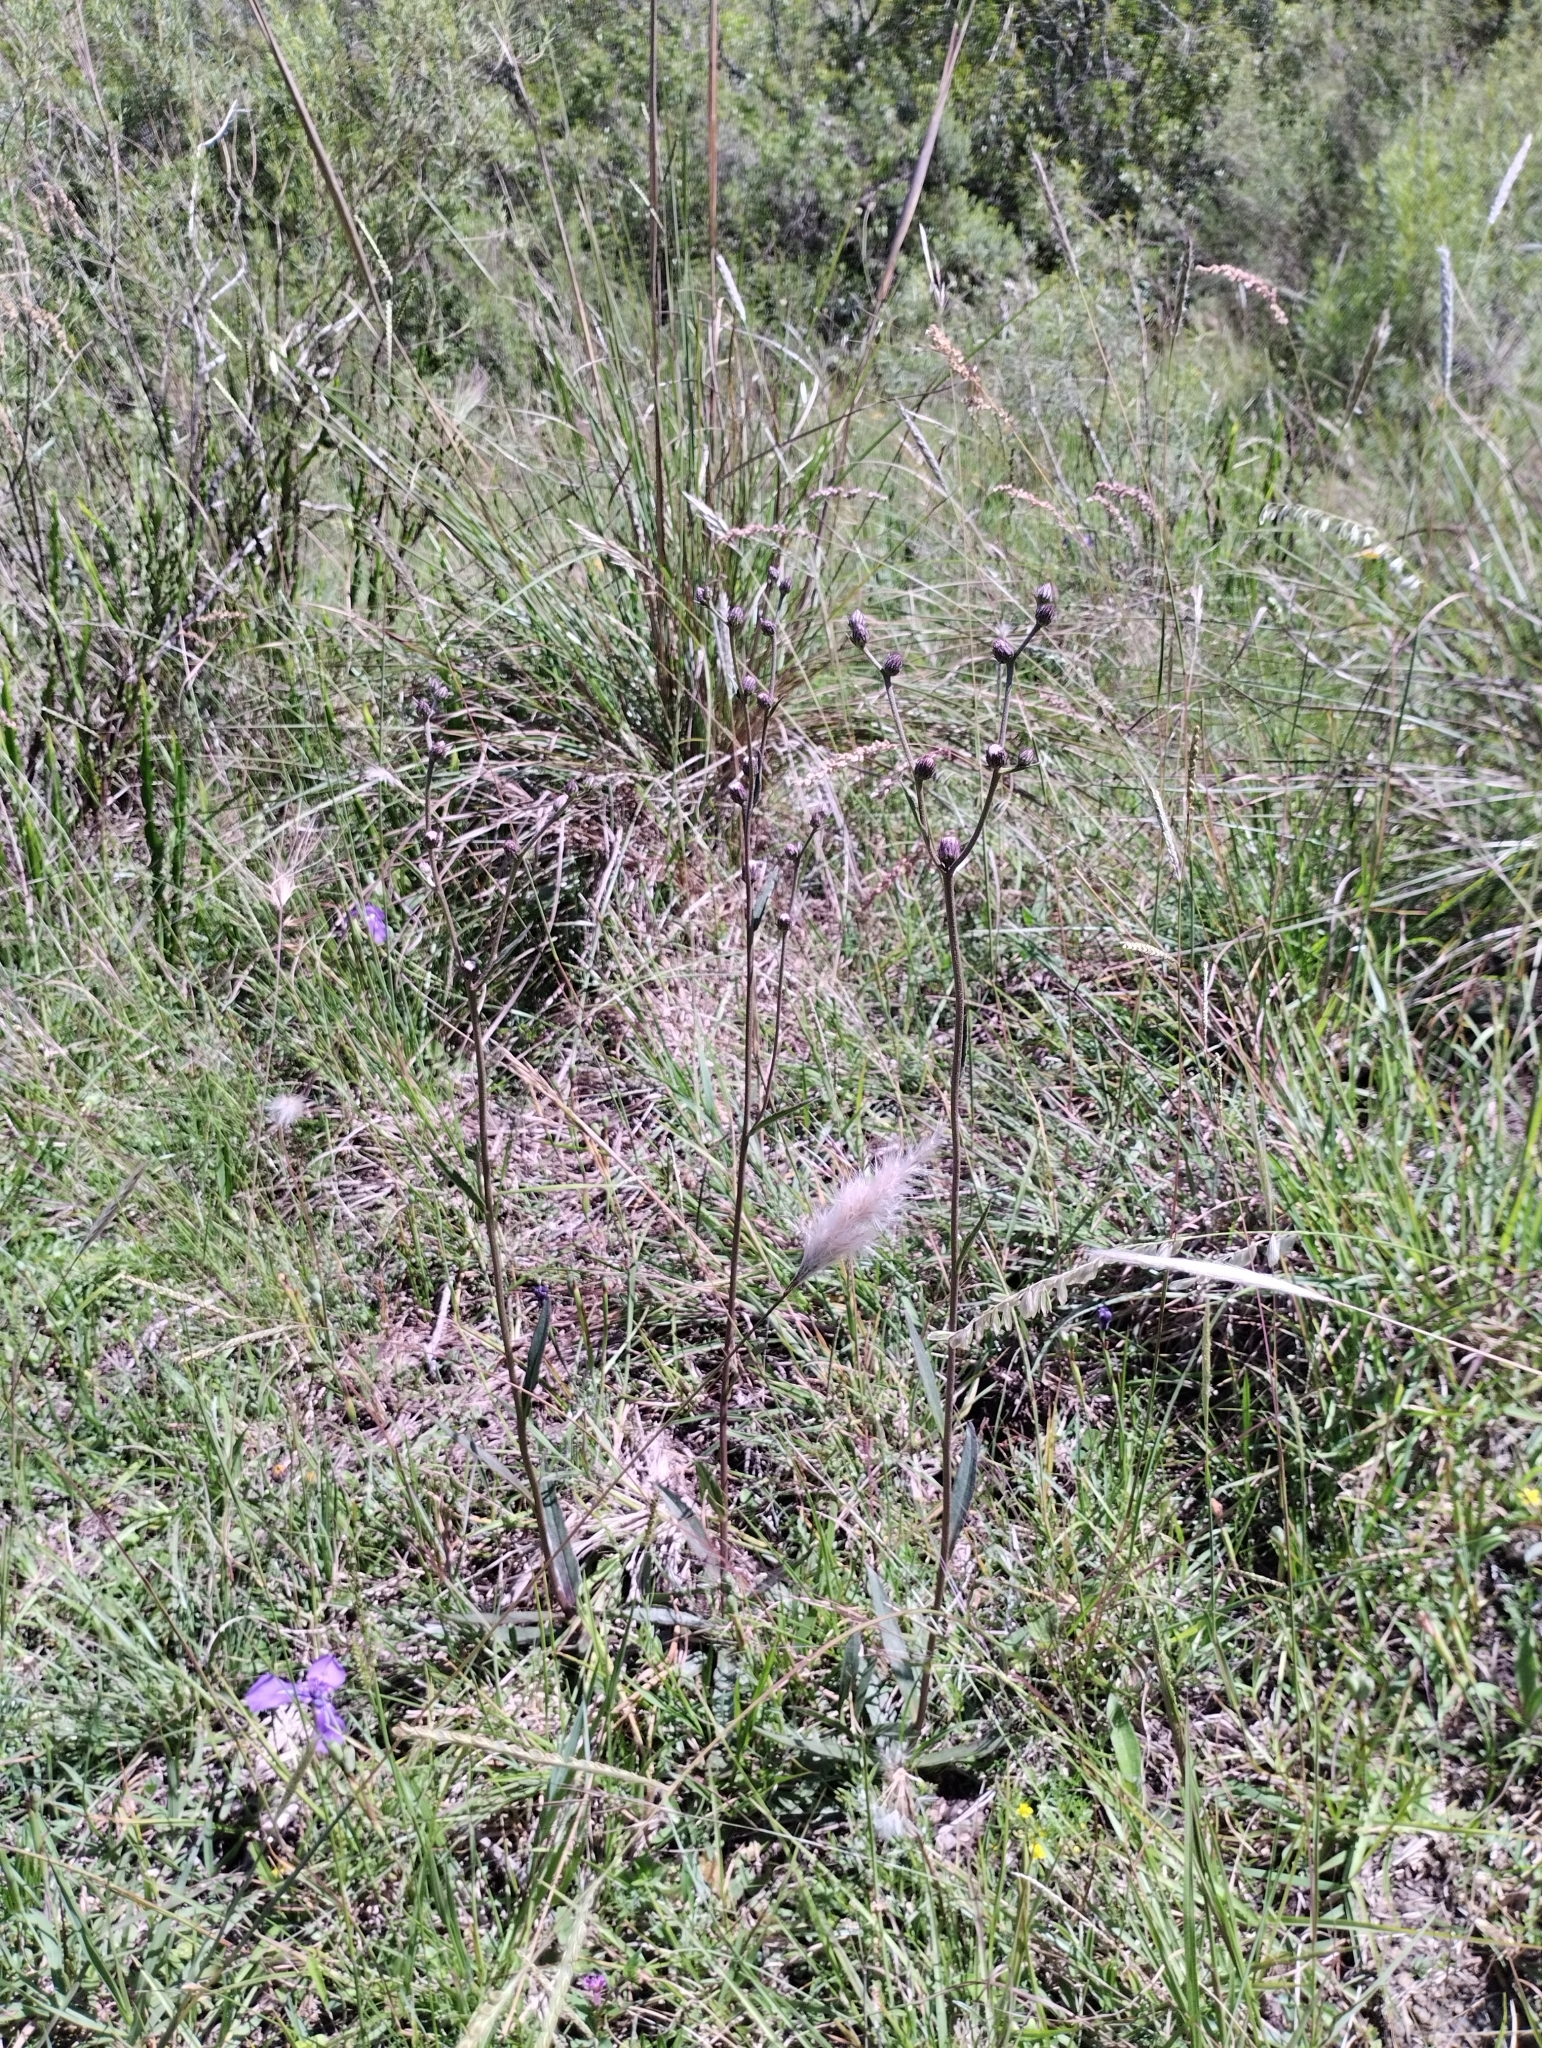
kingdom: Plantae
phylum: Tracheophyta
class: Magnoliopsida
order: Asterales
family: Asteraceae
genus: Chrysolaena
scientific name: Chrysolaena flexuosa
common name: Zig-zag vernonia
